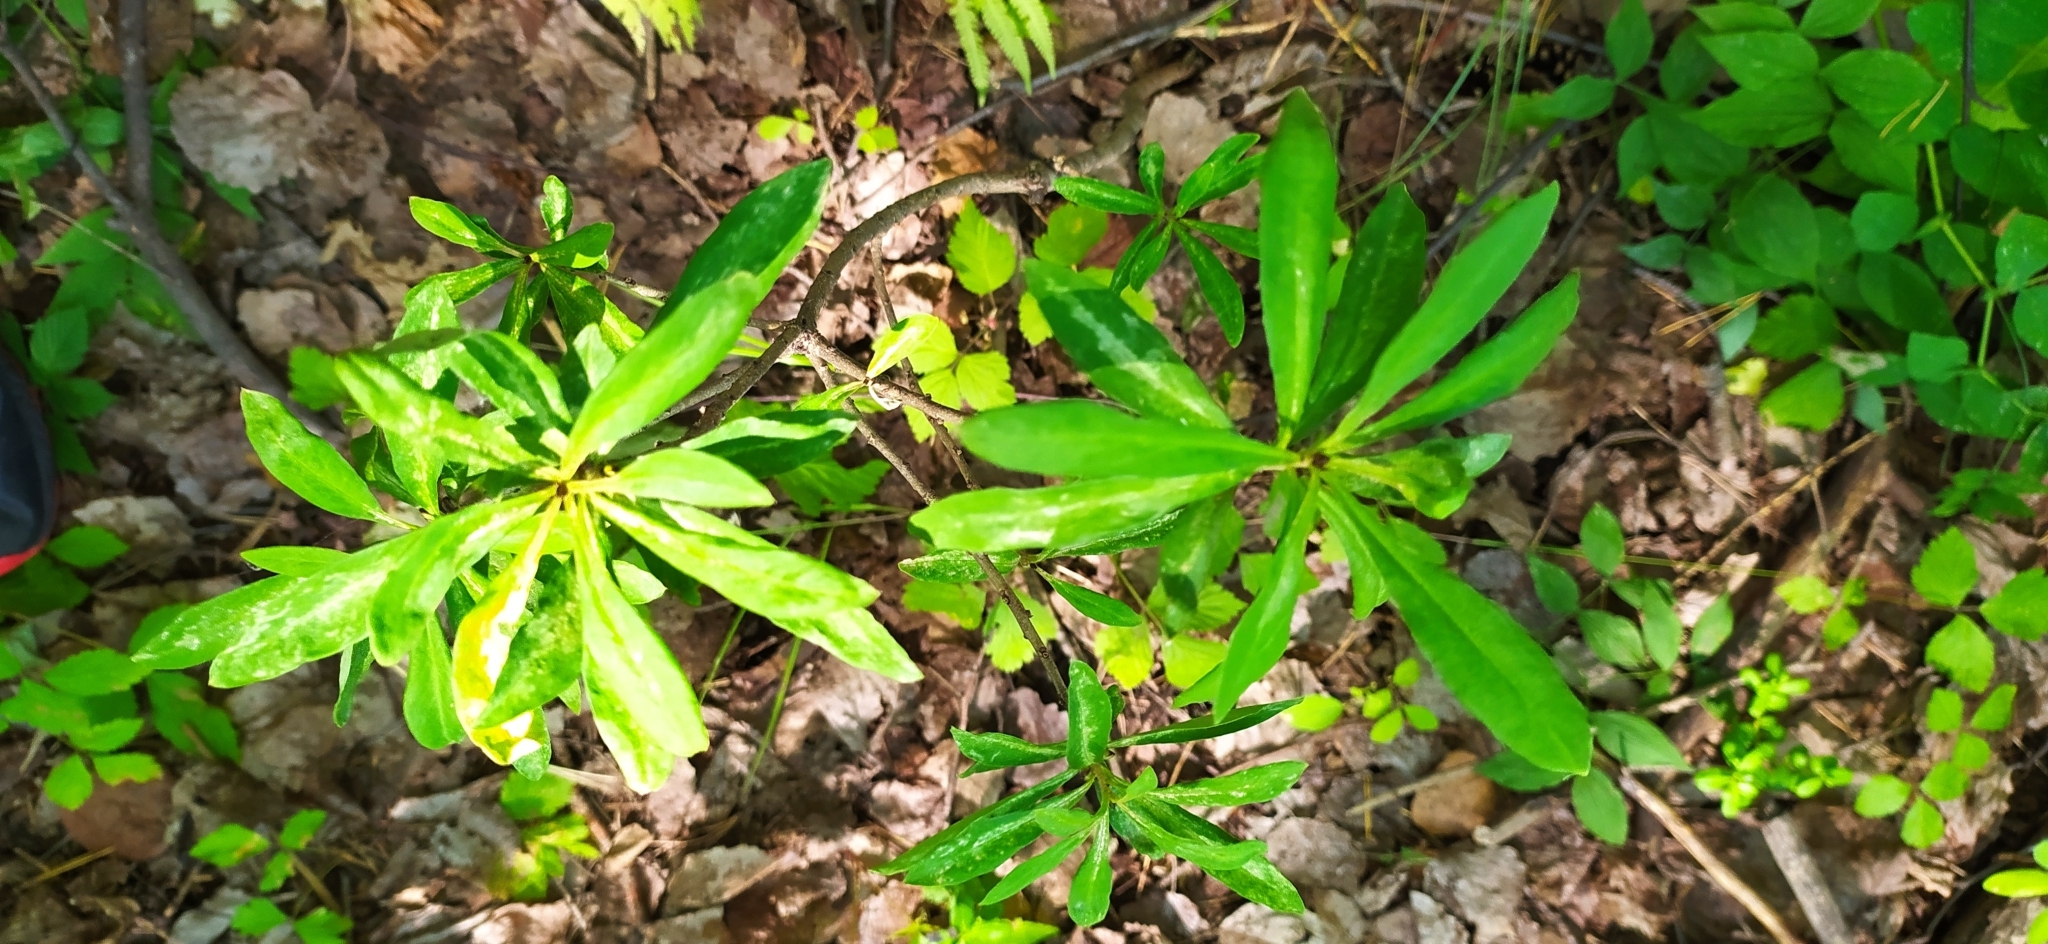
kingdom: Plantae
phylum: Tracheophyta
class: Magnoliopsida
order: Malvales
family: Thymelaeaceae
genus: Daphne
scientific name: Daphne mezereum
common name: Mezereon
